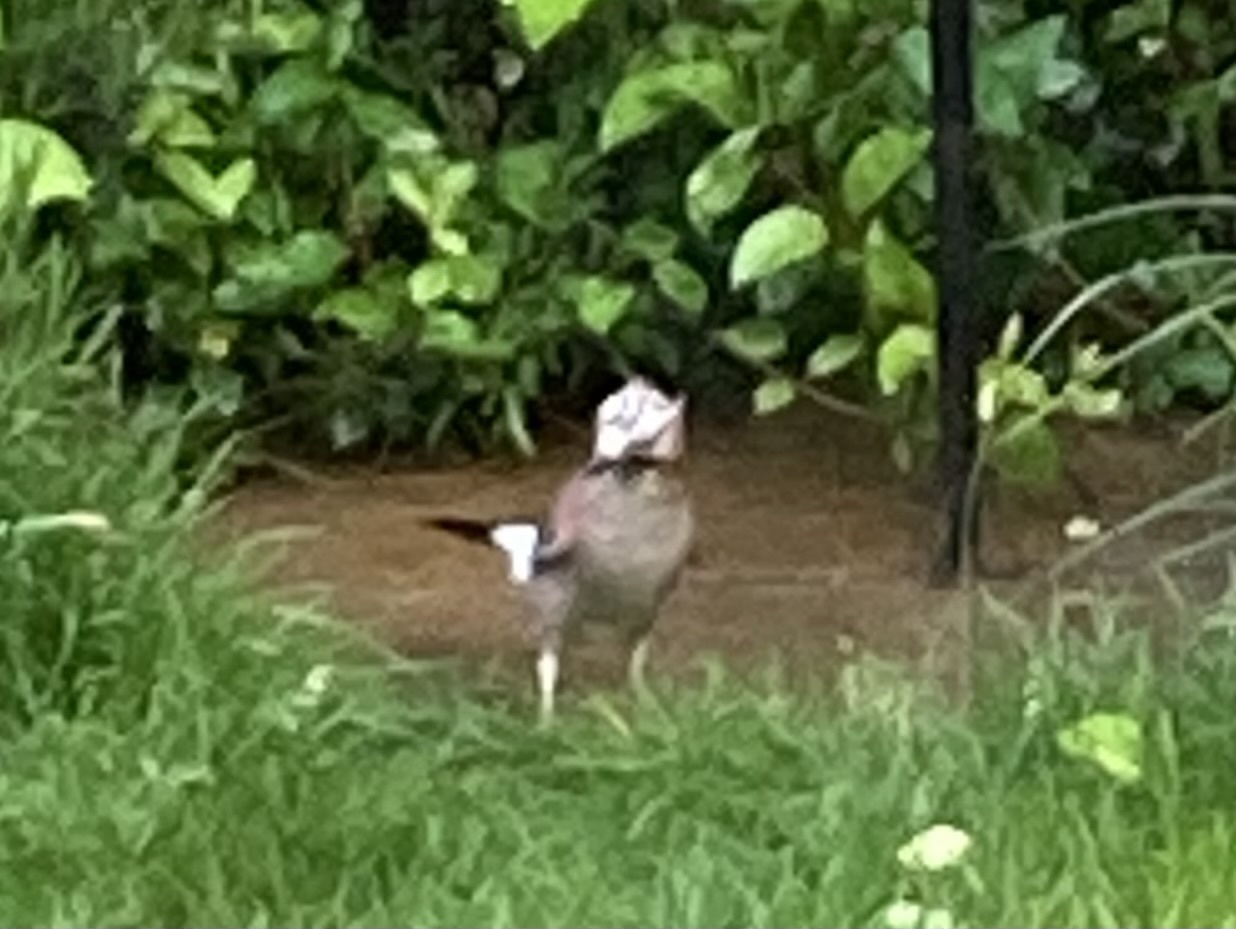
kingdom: Animalia
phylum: Chordata
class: Aves
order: Passeriformes
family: Corvidae
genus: Garrulus
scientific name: Garrulus glandarius
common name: Eurasian jay
